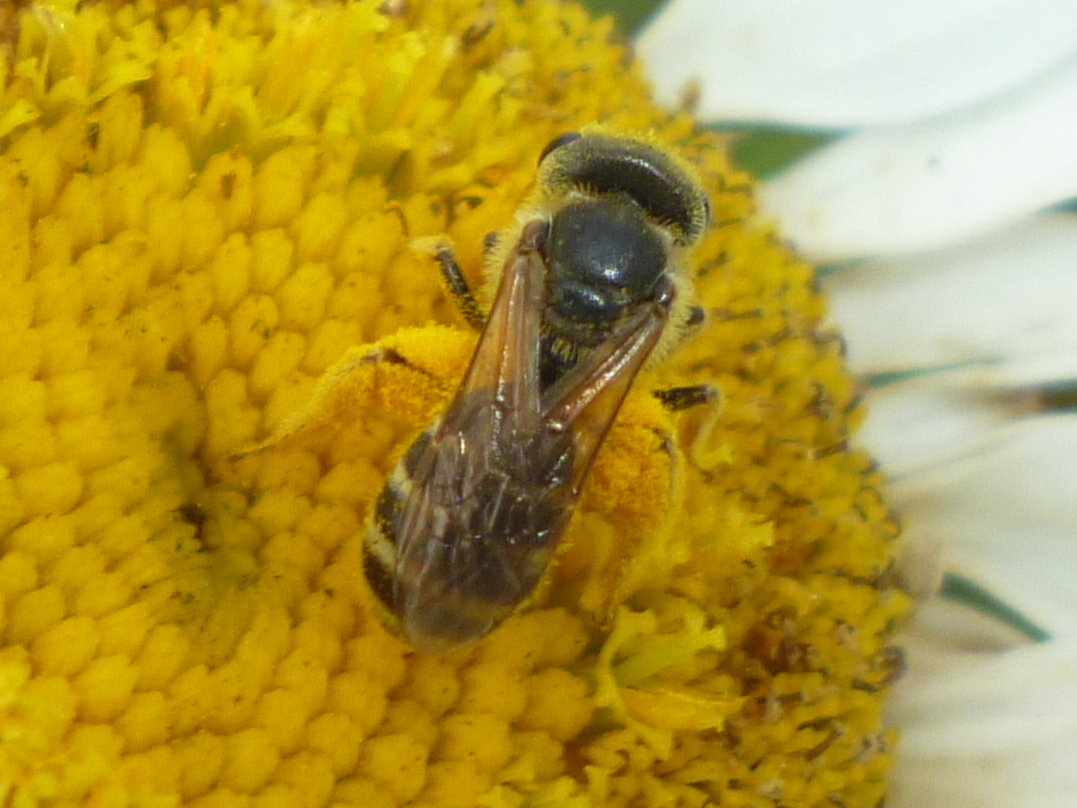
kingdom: Animalia
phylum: Arthropoda
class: Insecta
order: Hymenoptera
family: Halictidae
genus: Halictus
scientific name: Halictus ligatus
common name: Ligated furrow bee
